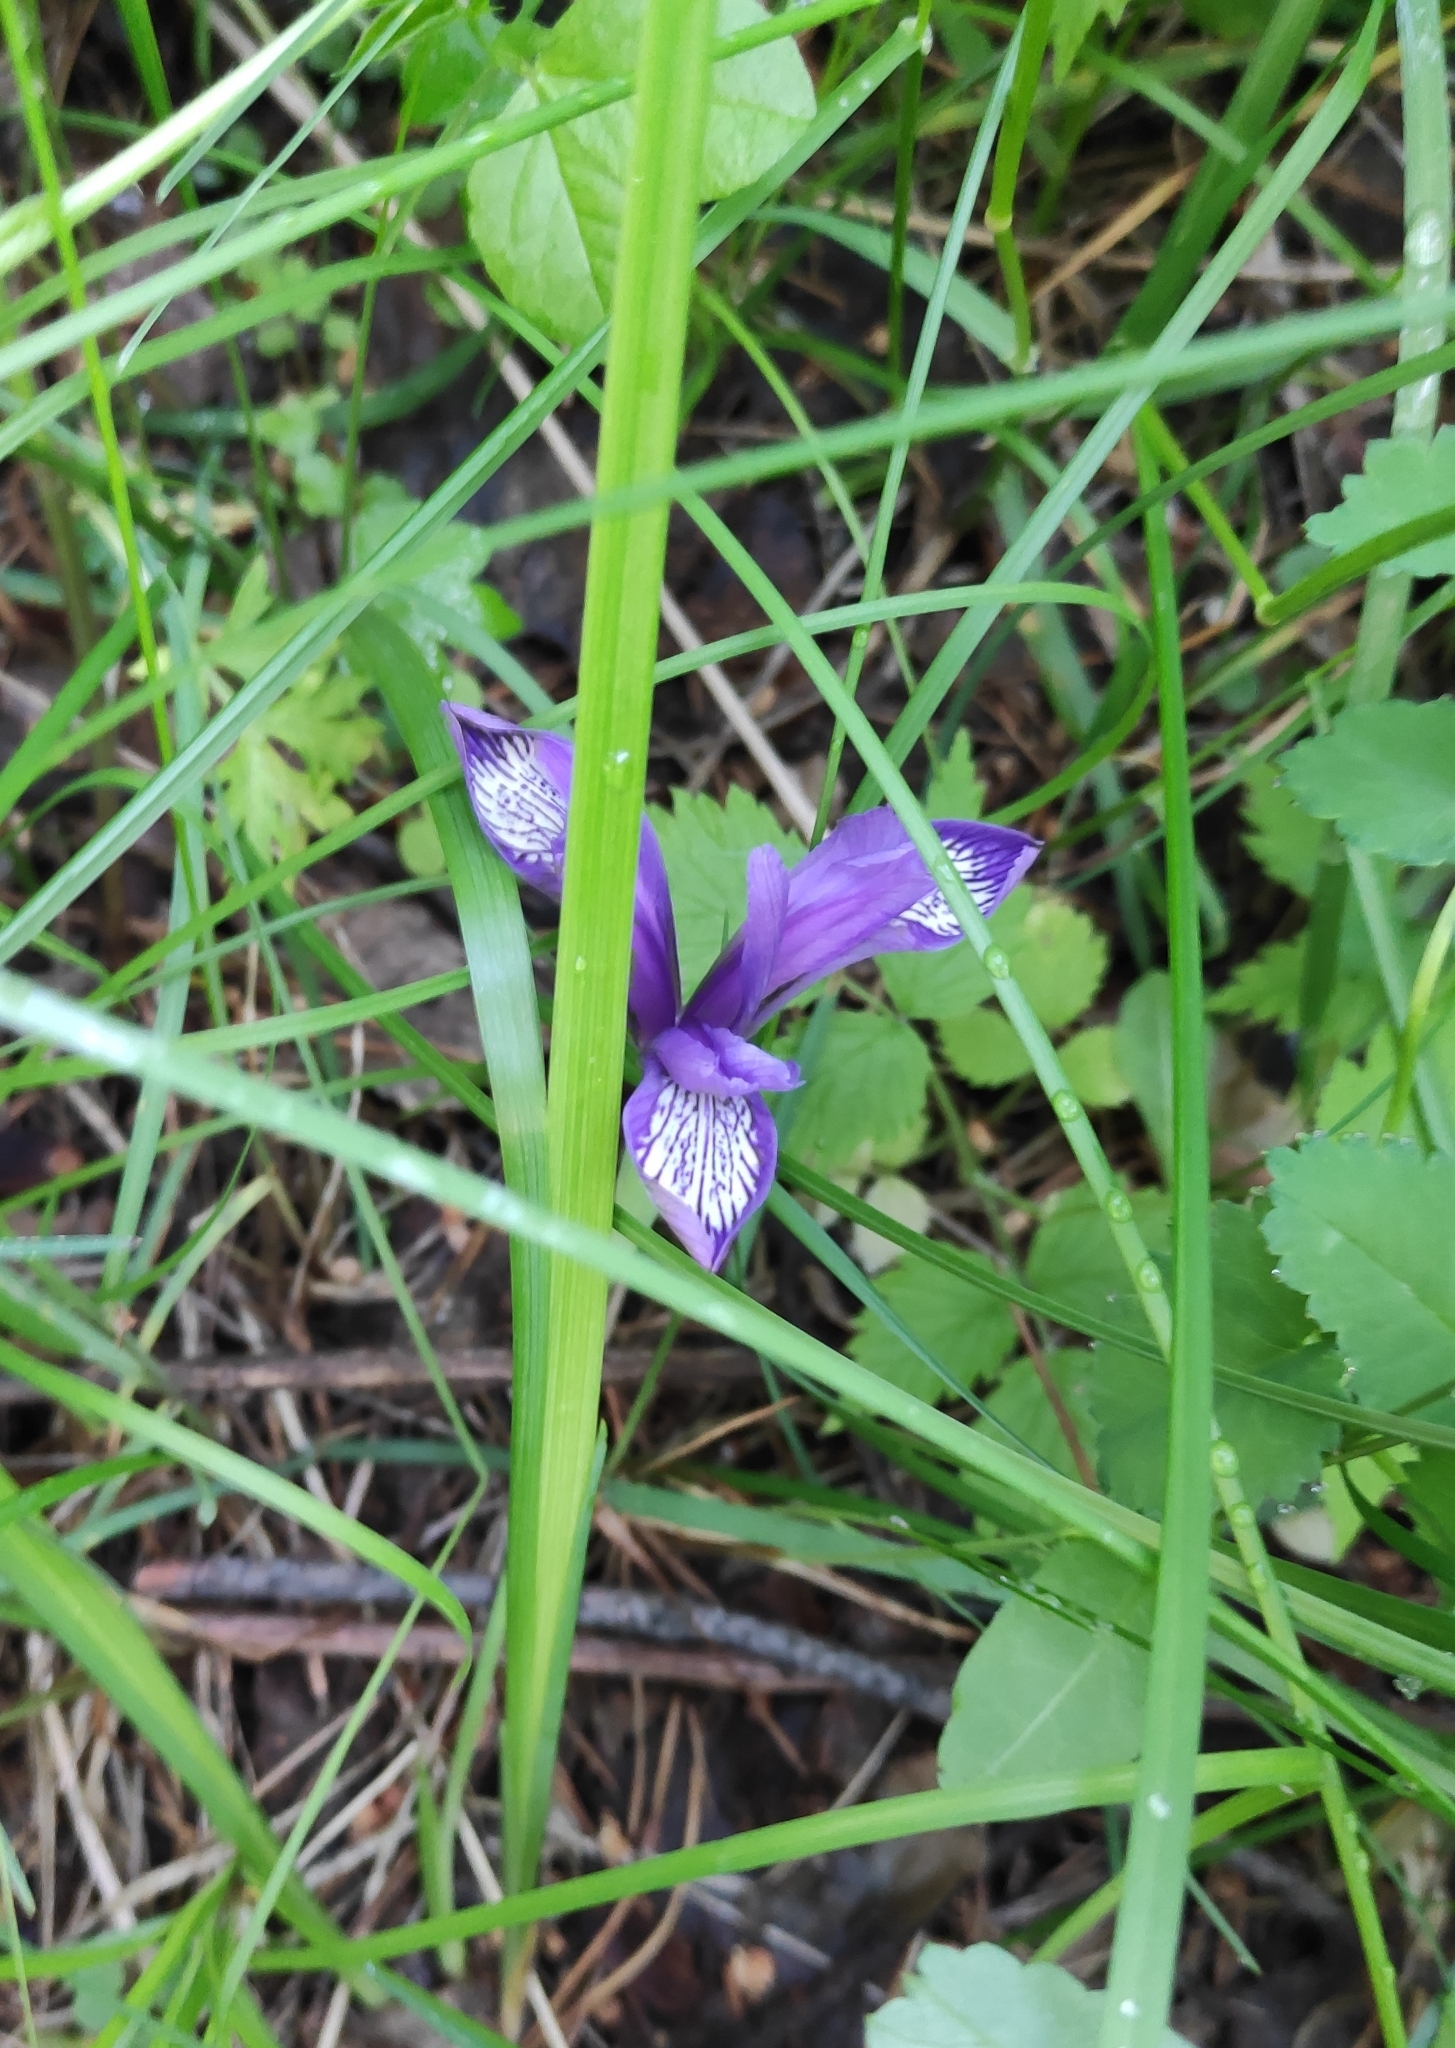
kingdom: Plantae
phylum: Tracheophyta
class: Liliopsida
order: Asparagales
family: Iridaceae
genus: Iris
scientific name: Iris ruthenica
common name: Purple-bract iris
